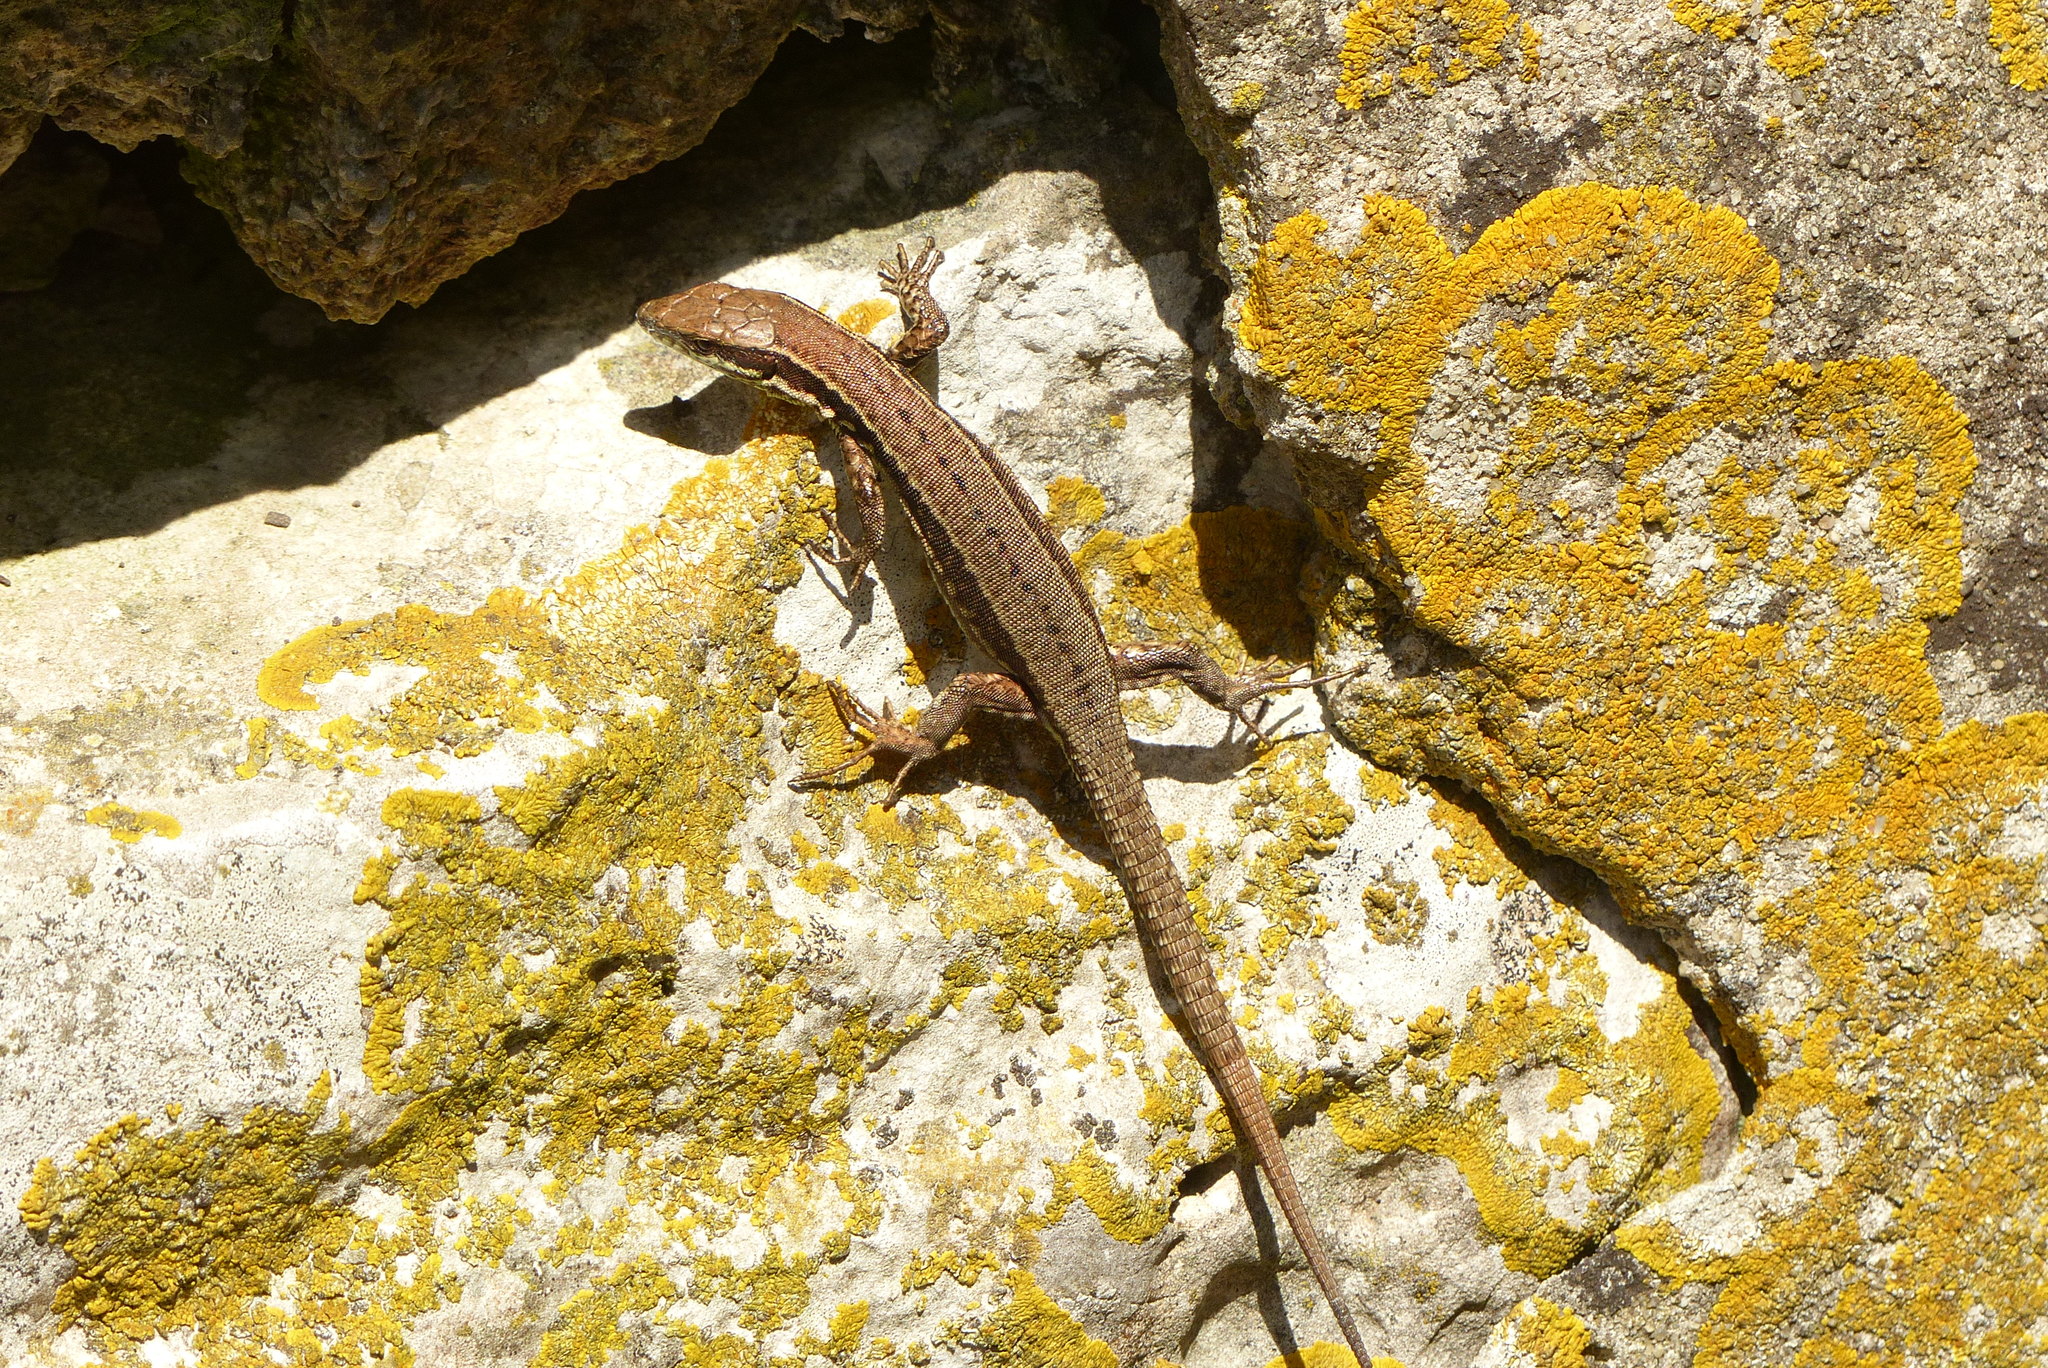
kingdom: Animalia
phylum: Chordata
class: Squamata
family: Lacertidae
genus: Podarcis
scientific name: Podarcis muralis
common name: Common wall lizard
